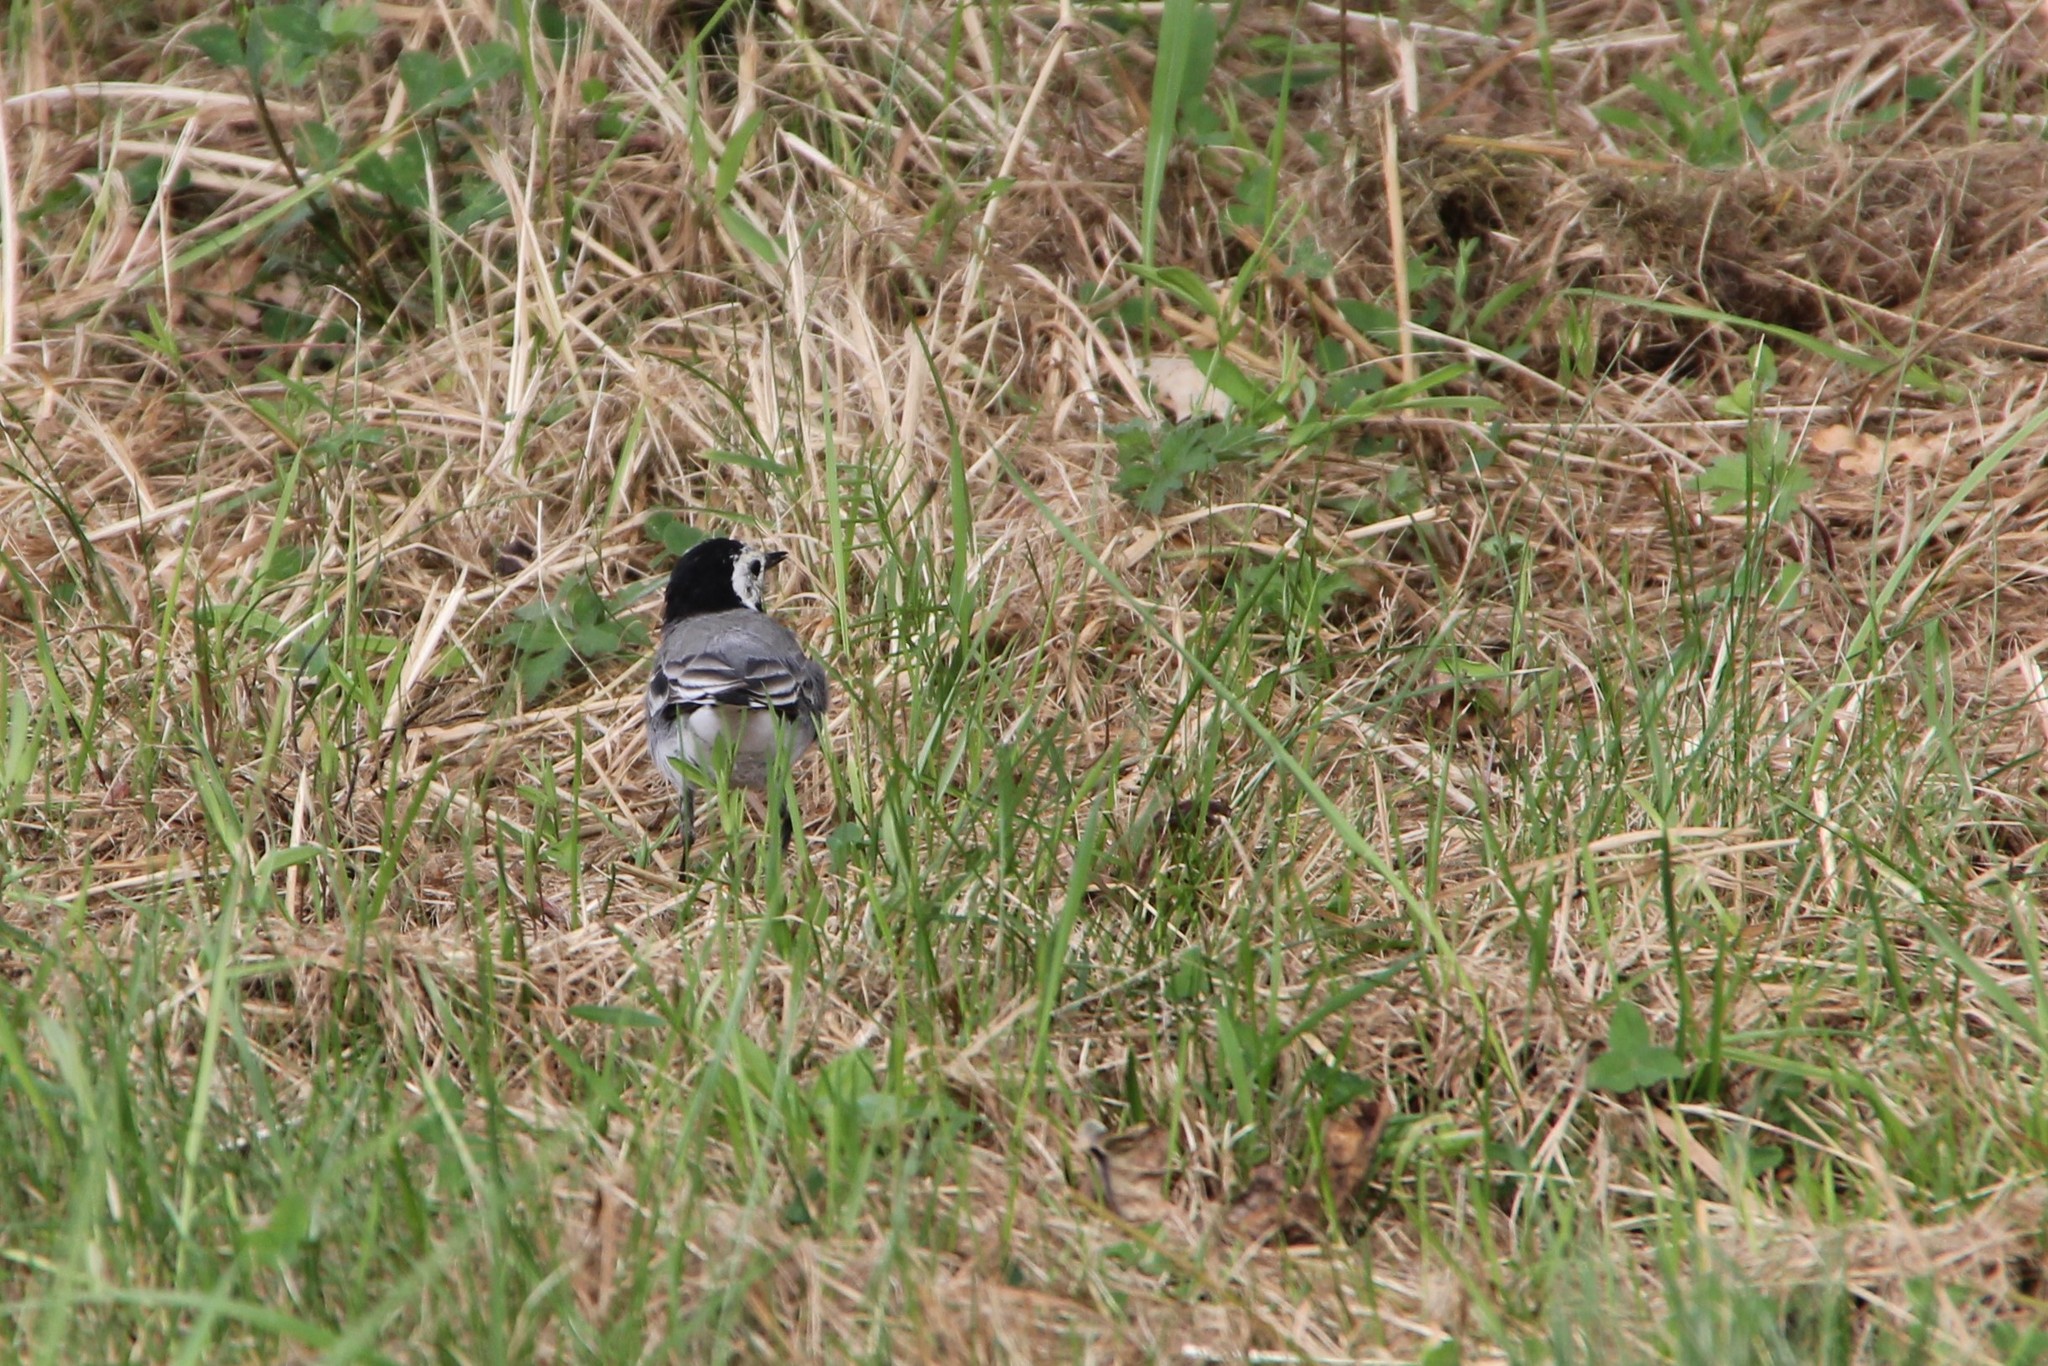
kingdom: Animalia
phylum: Chordata
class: Aves
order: Passeriformes
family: Motacillidae
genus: Motacilla
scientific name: Motacilla alba
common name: White wagtail
